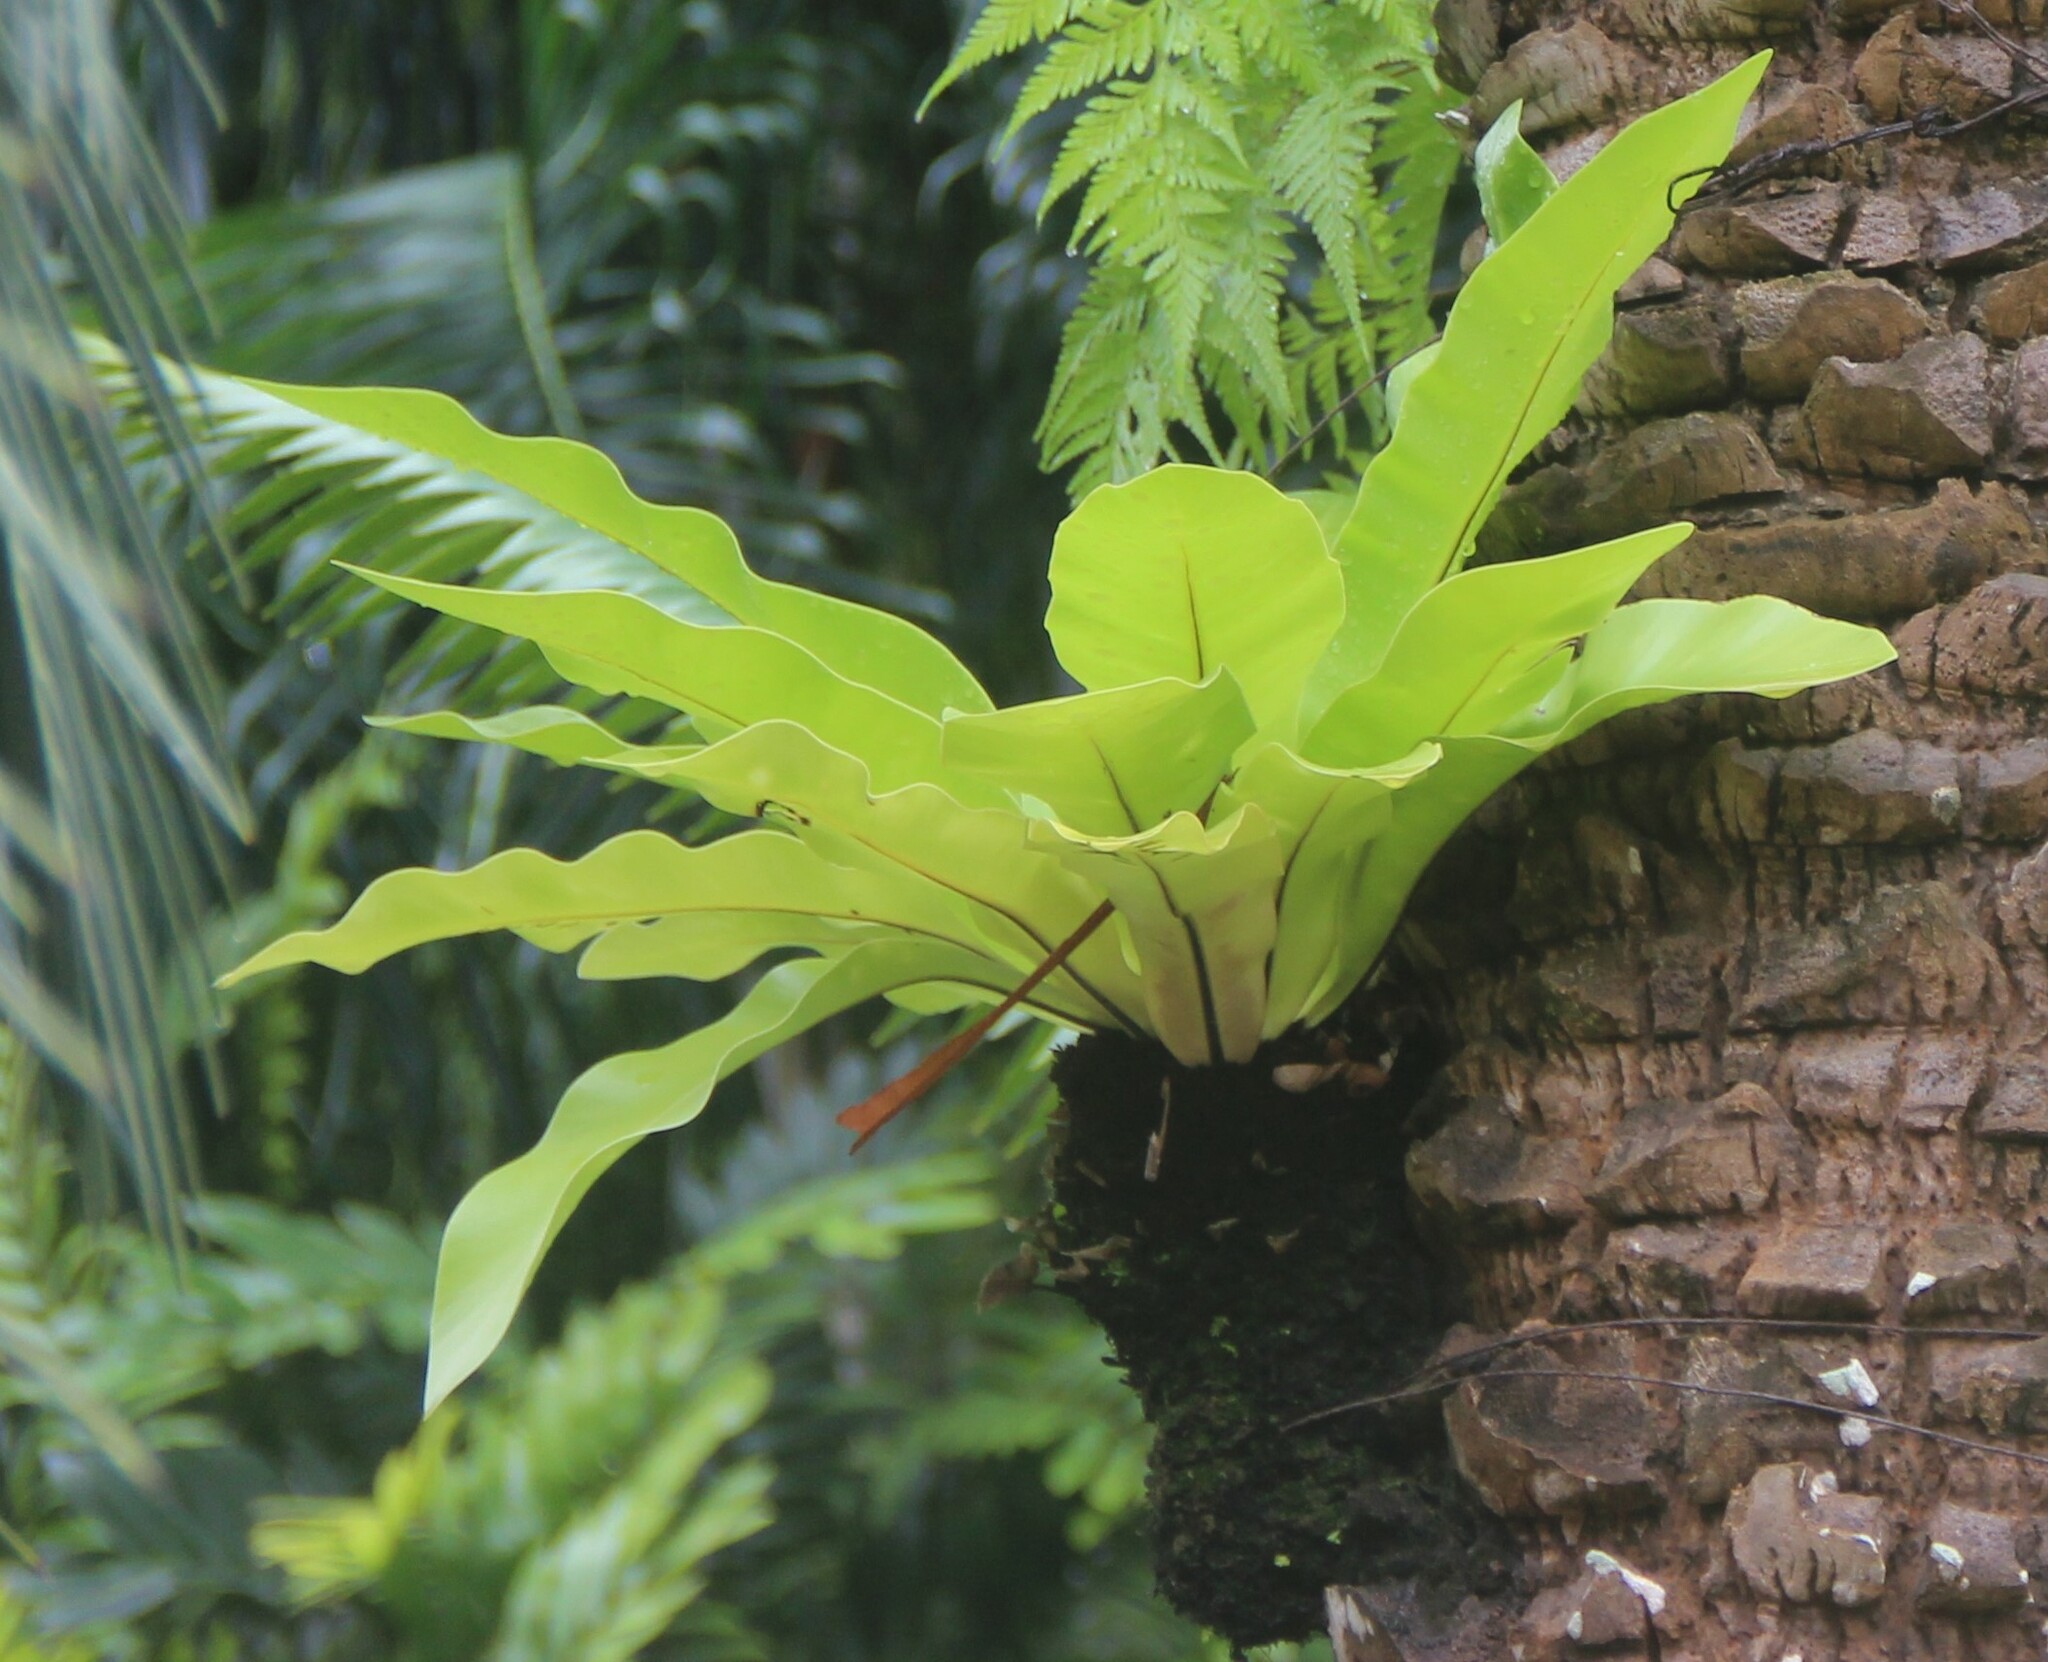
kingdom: Plantae
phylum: Tracheophyta
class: Polypodiopsida
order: Polypodiales
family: Aspleniaceae
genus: Asplenium
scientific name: Asplenium nidus
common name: Bird's-nest fern
